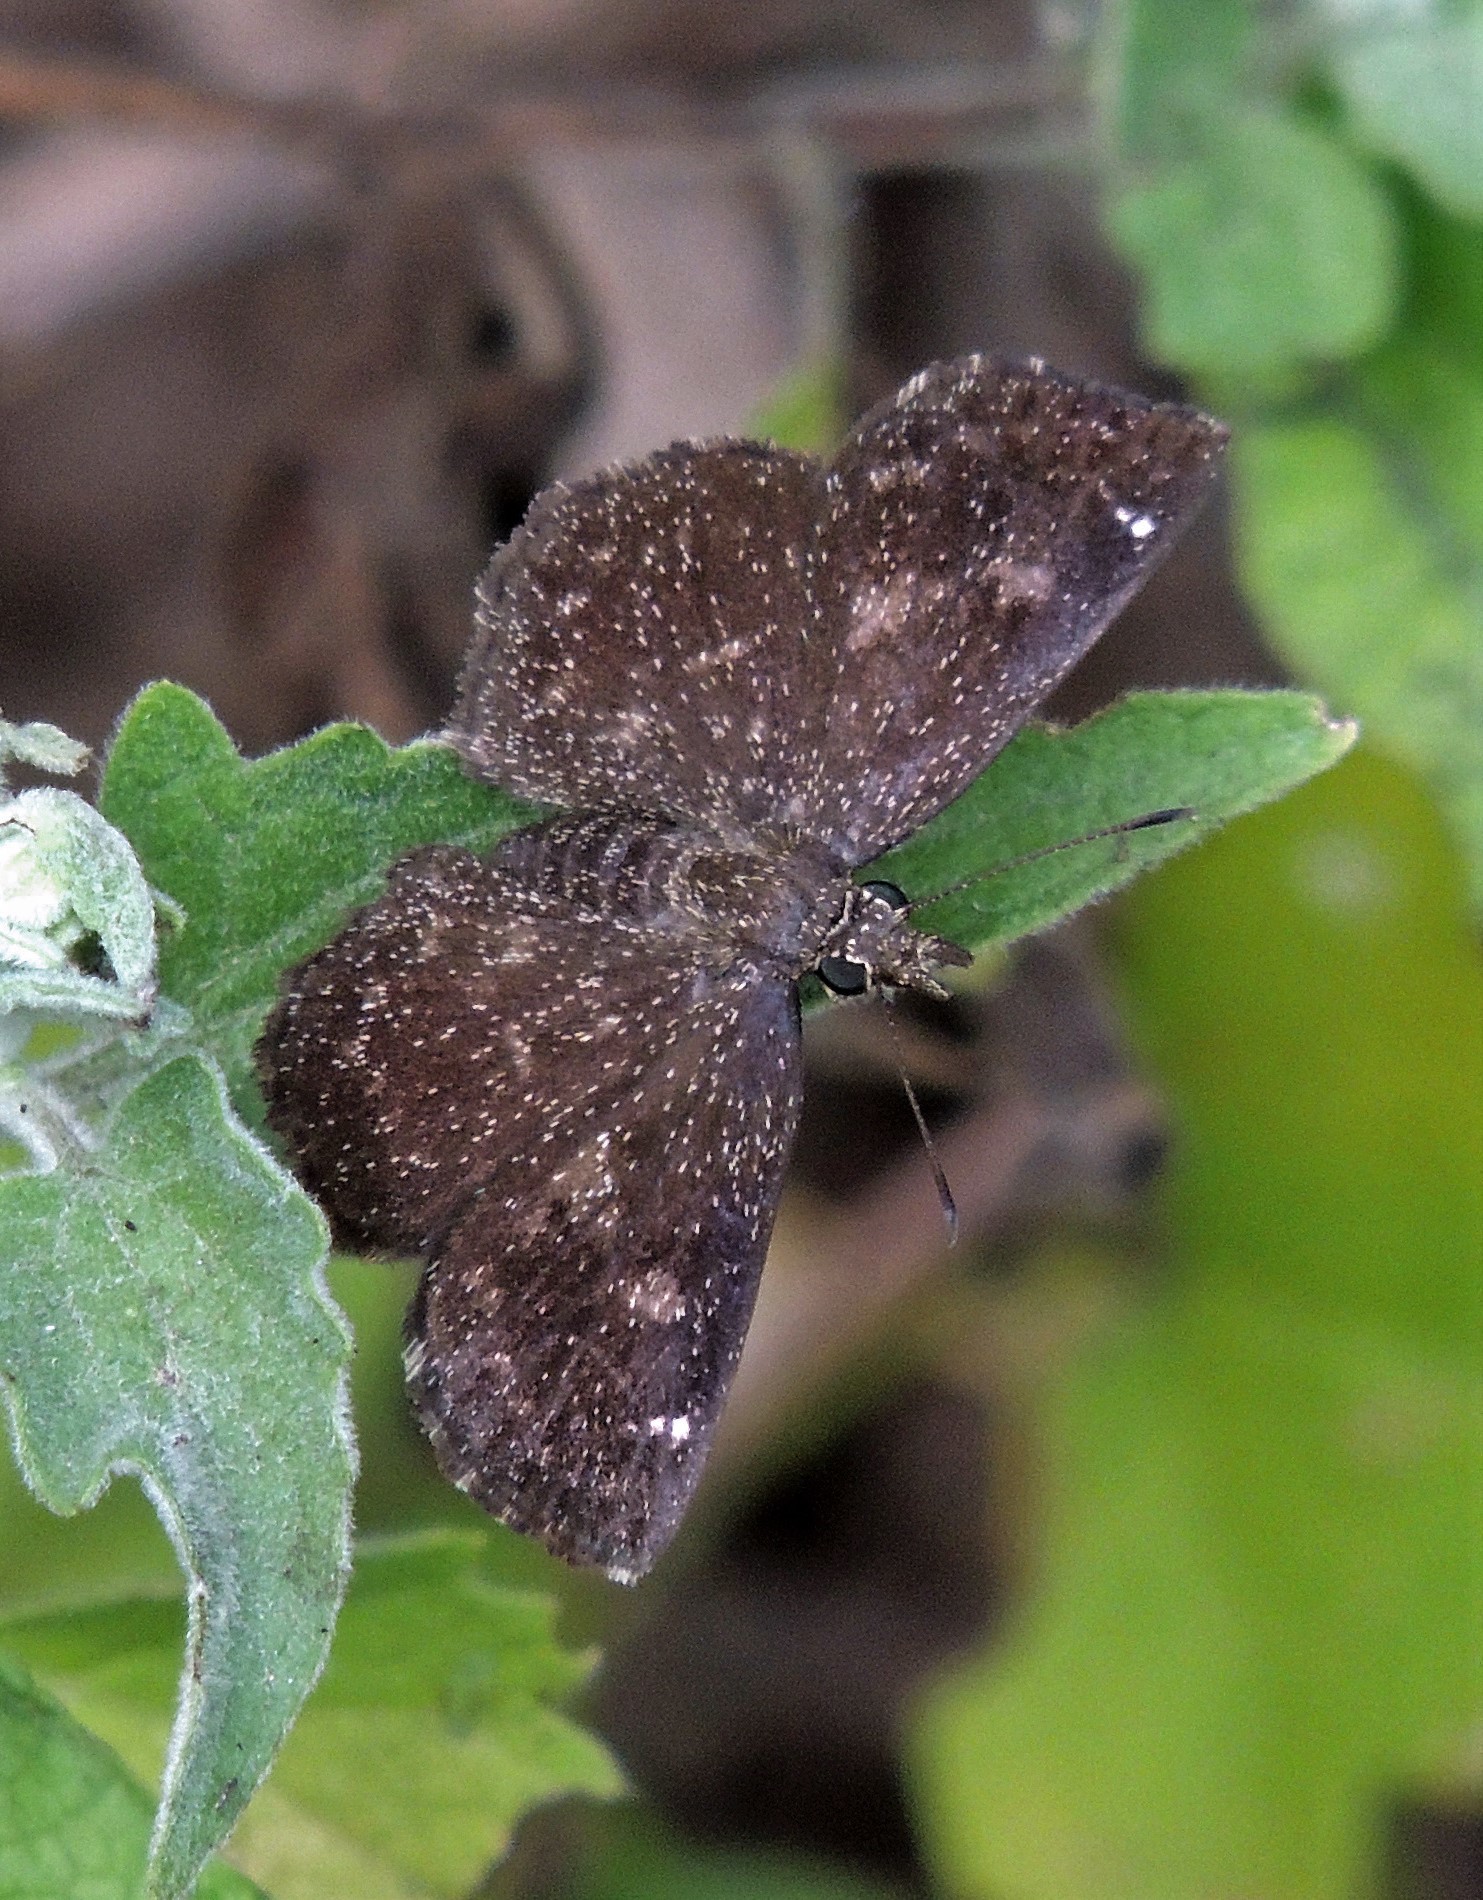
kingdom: Animalia
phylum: Arthropoda
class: Insecta
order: Lepidoptera
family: Hesperiidae
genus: Staphylus
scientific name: Staphylus musculus
